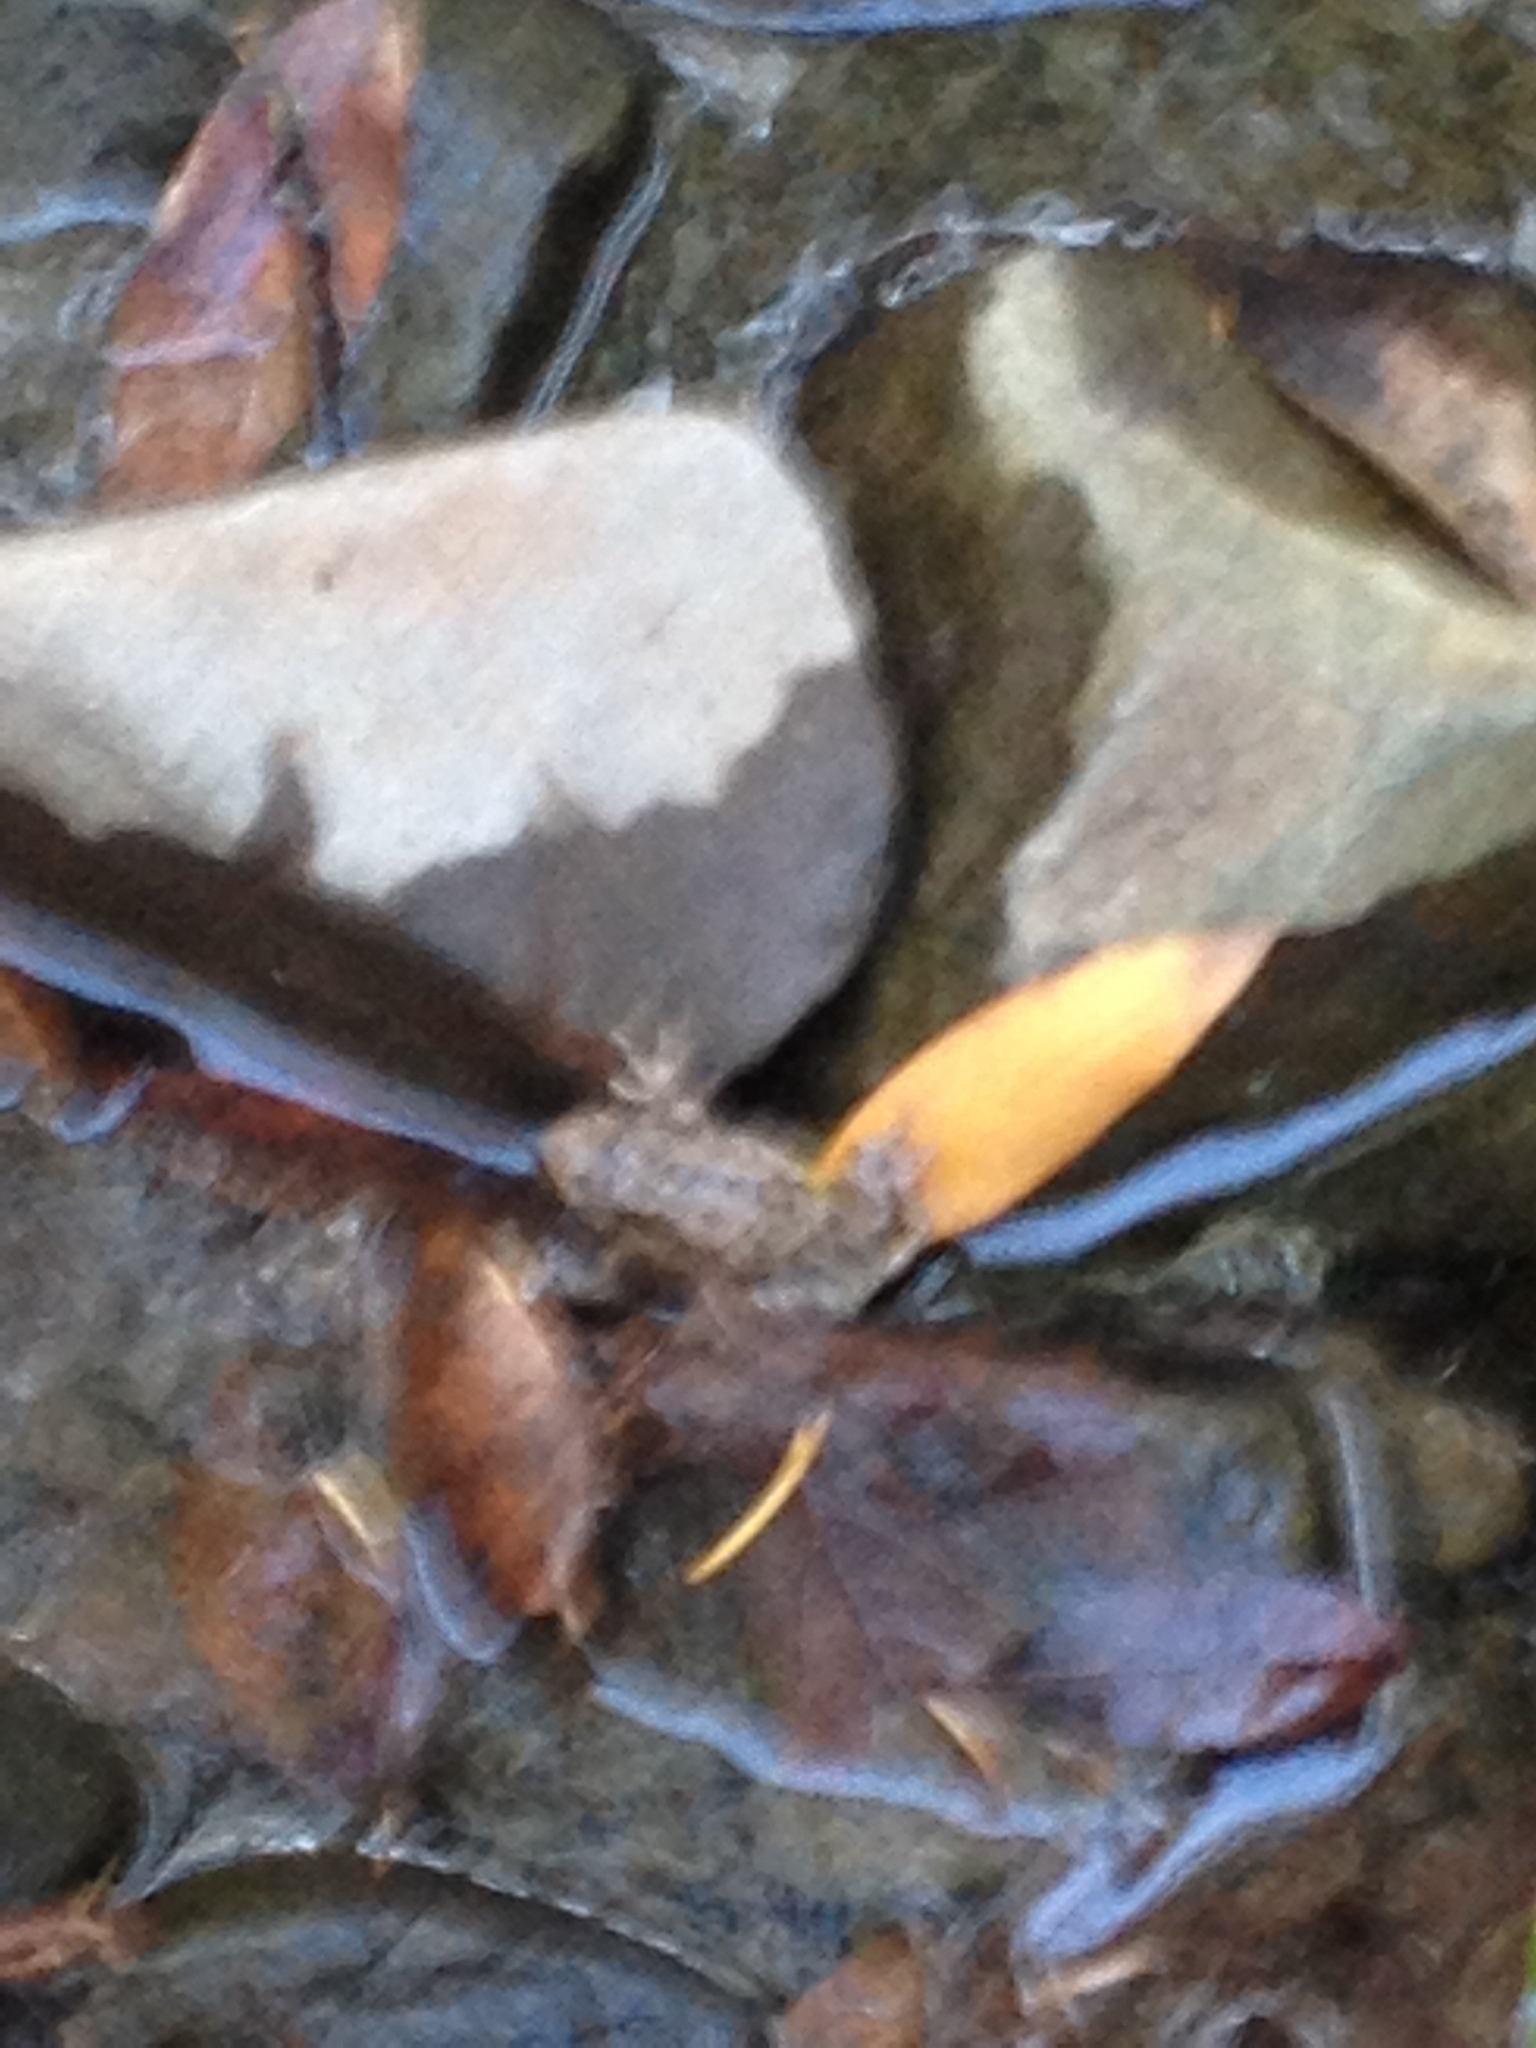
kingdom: Animalia
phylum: Chordata
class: Amphibia
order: Anura
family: Hylidae
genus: Pseudacris
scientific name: Pseudacris regilla
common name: Pacific chorus frog
